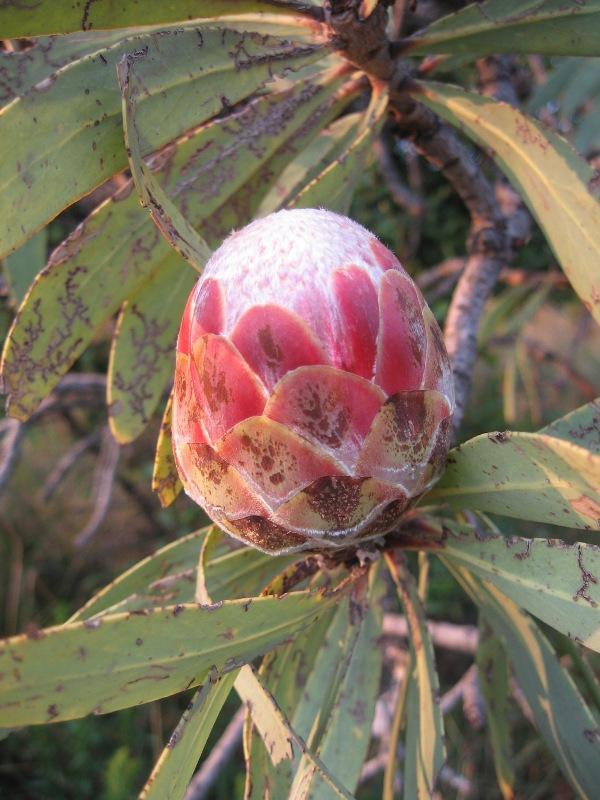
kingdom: Plantae
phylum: Tracheophyta
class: Magnoliopsida
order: Proteales
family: Proteaceae
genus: Protea
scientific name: Protea caffra
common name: Common sugarbush
